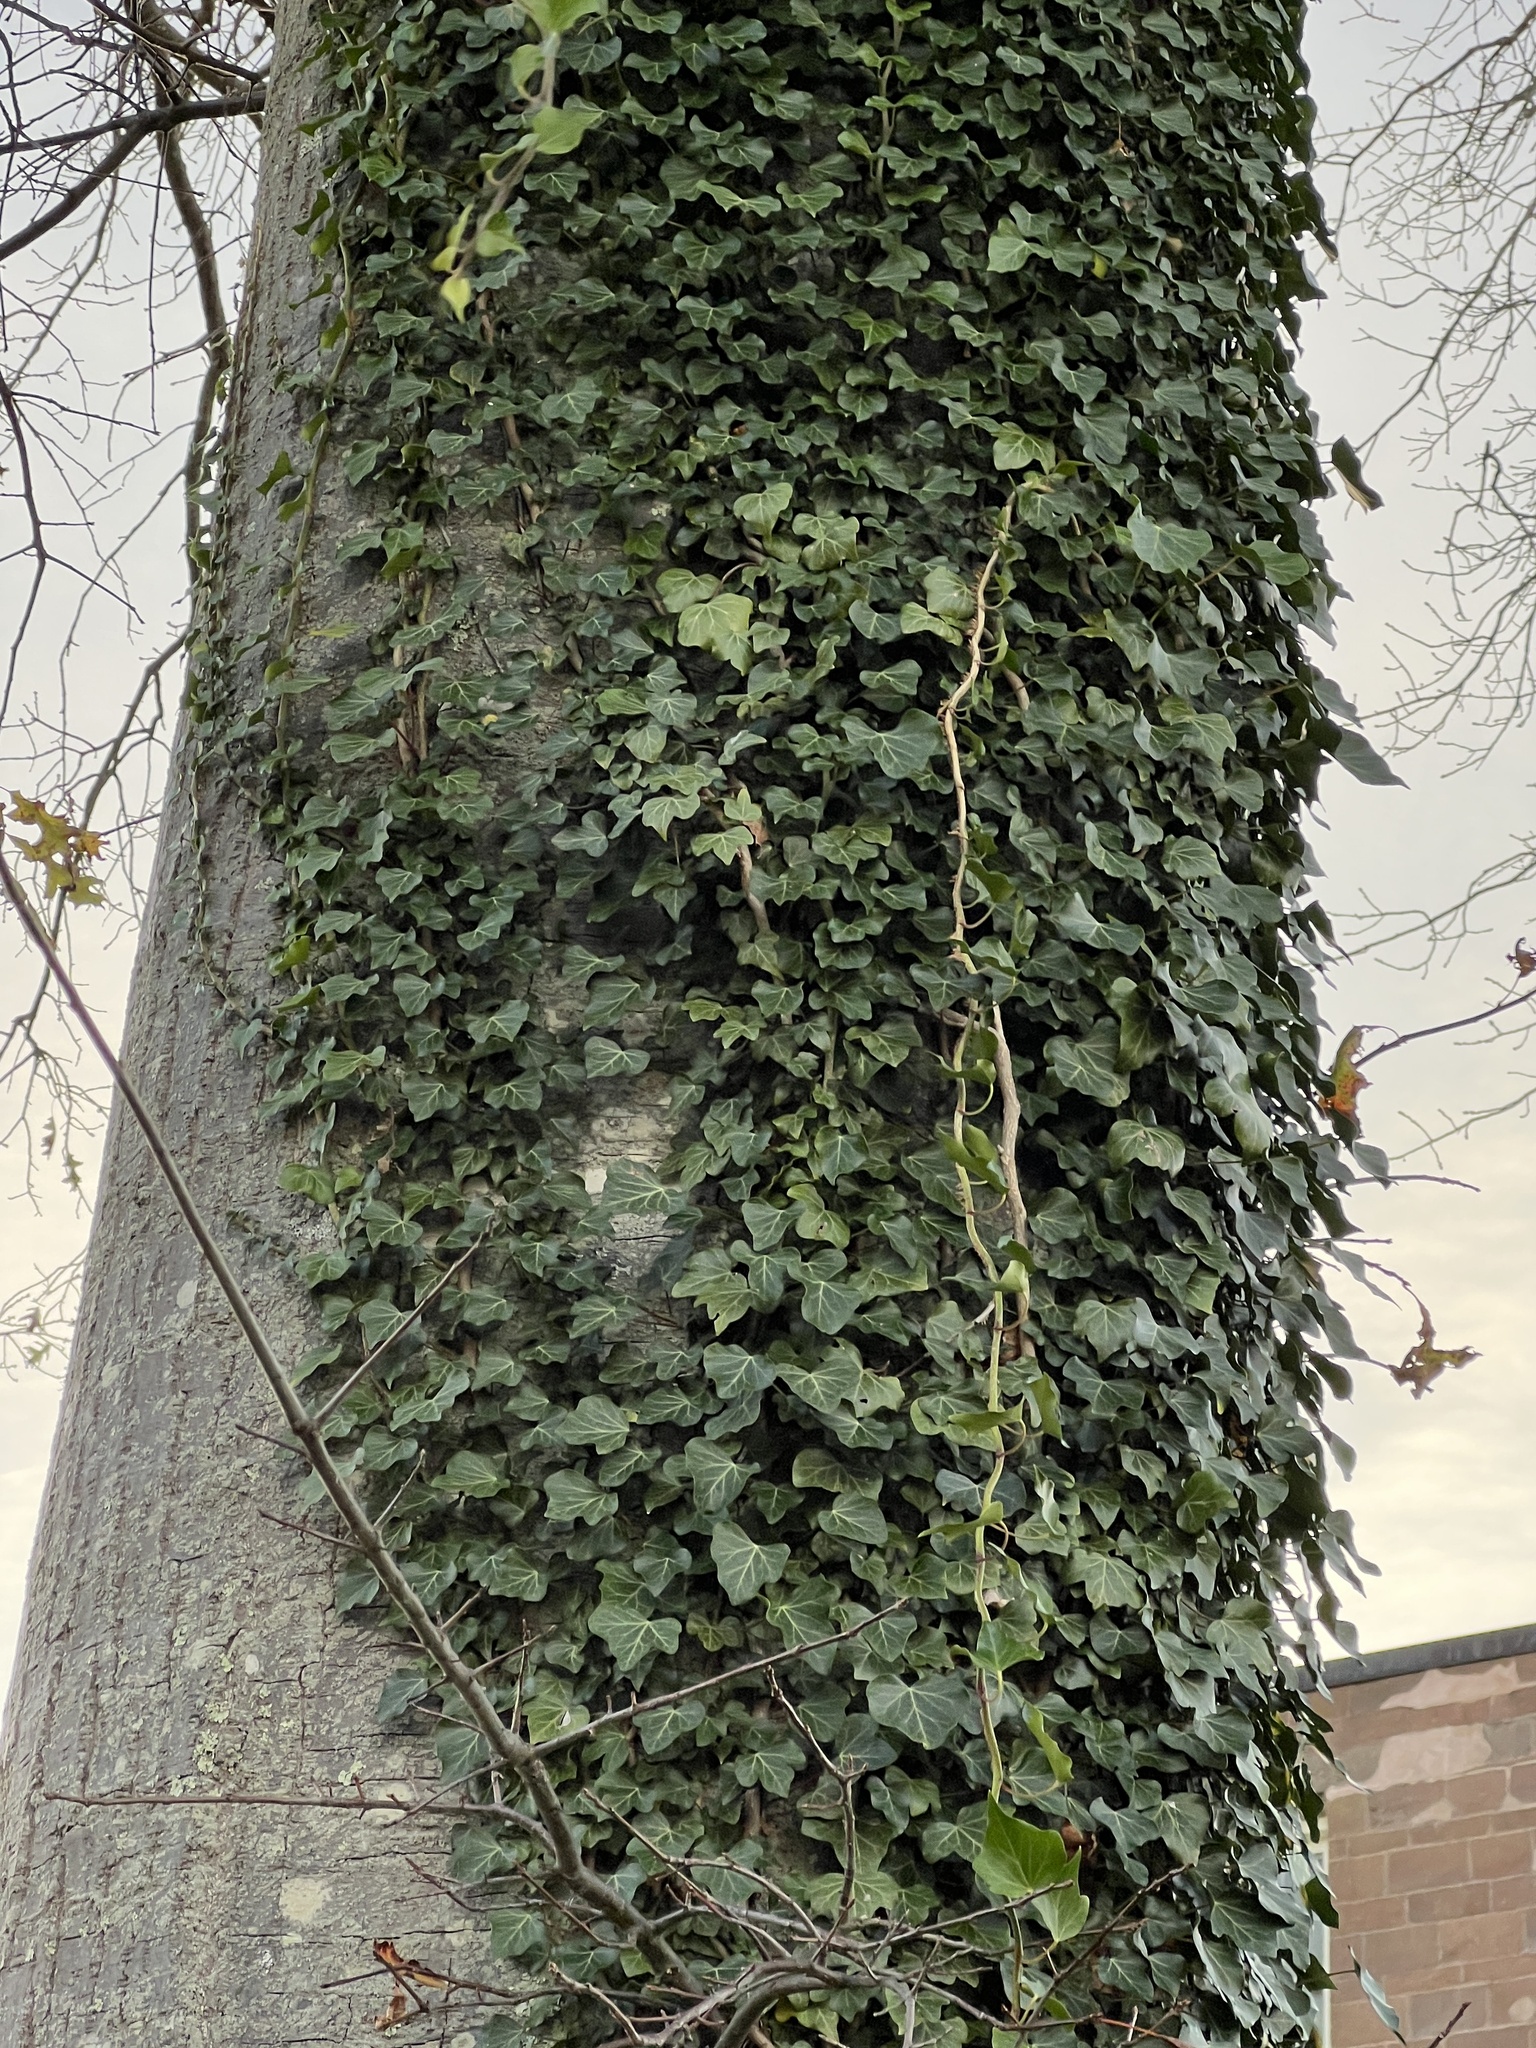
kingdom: Plantae
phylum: Tracheophyta
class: Magnoliopsida
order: Apiales
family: Araliaceae
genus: Hedera
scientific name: Hedera helix
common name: Ivy
